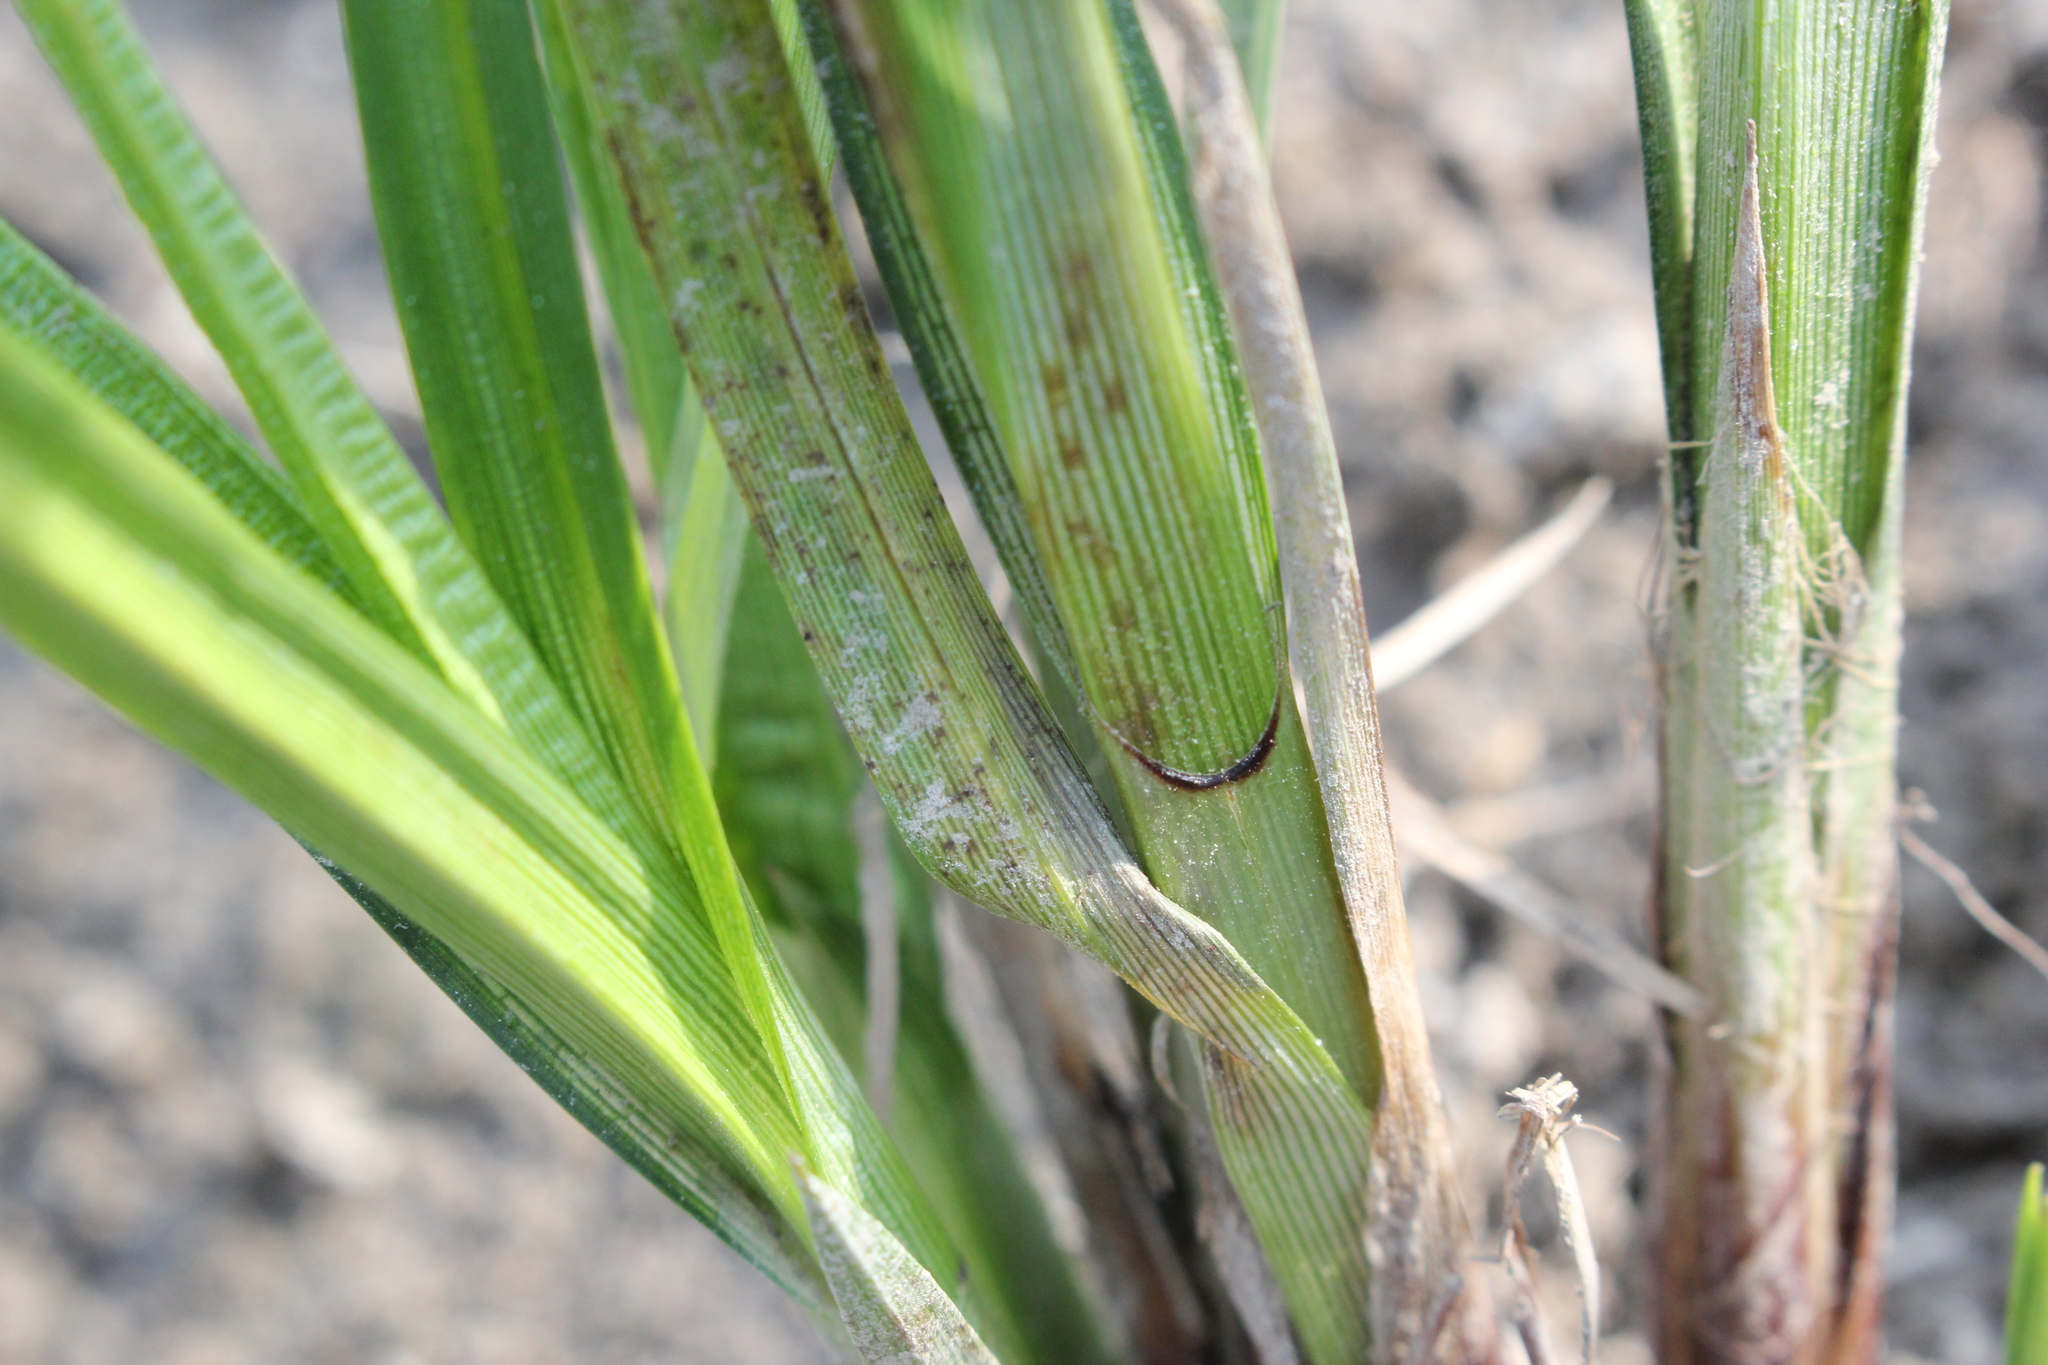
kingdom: Plantae
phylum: Tracheophyta
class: Liliopsida
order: Poales
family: Cyperaceae
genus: Carex
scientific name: Carex trichocarpa
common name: Hairy-fruited lake sedge
